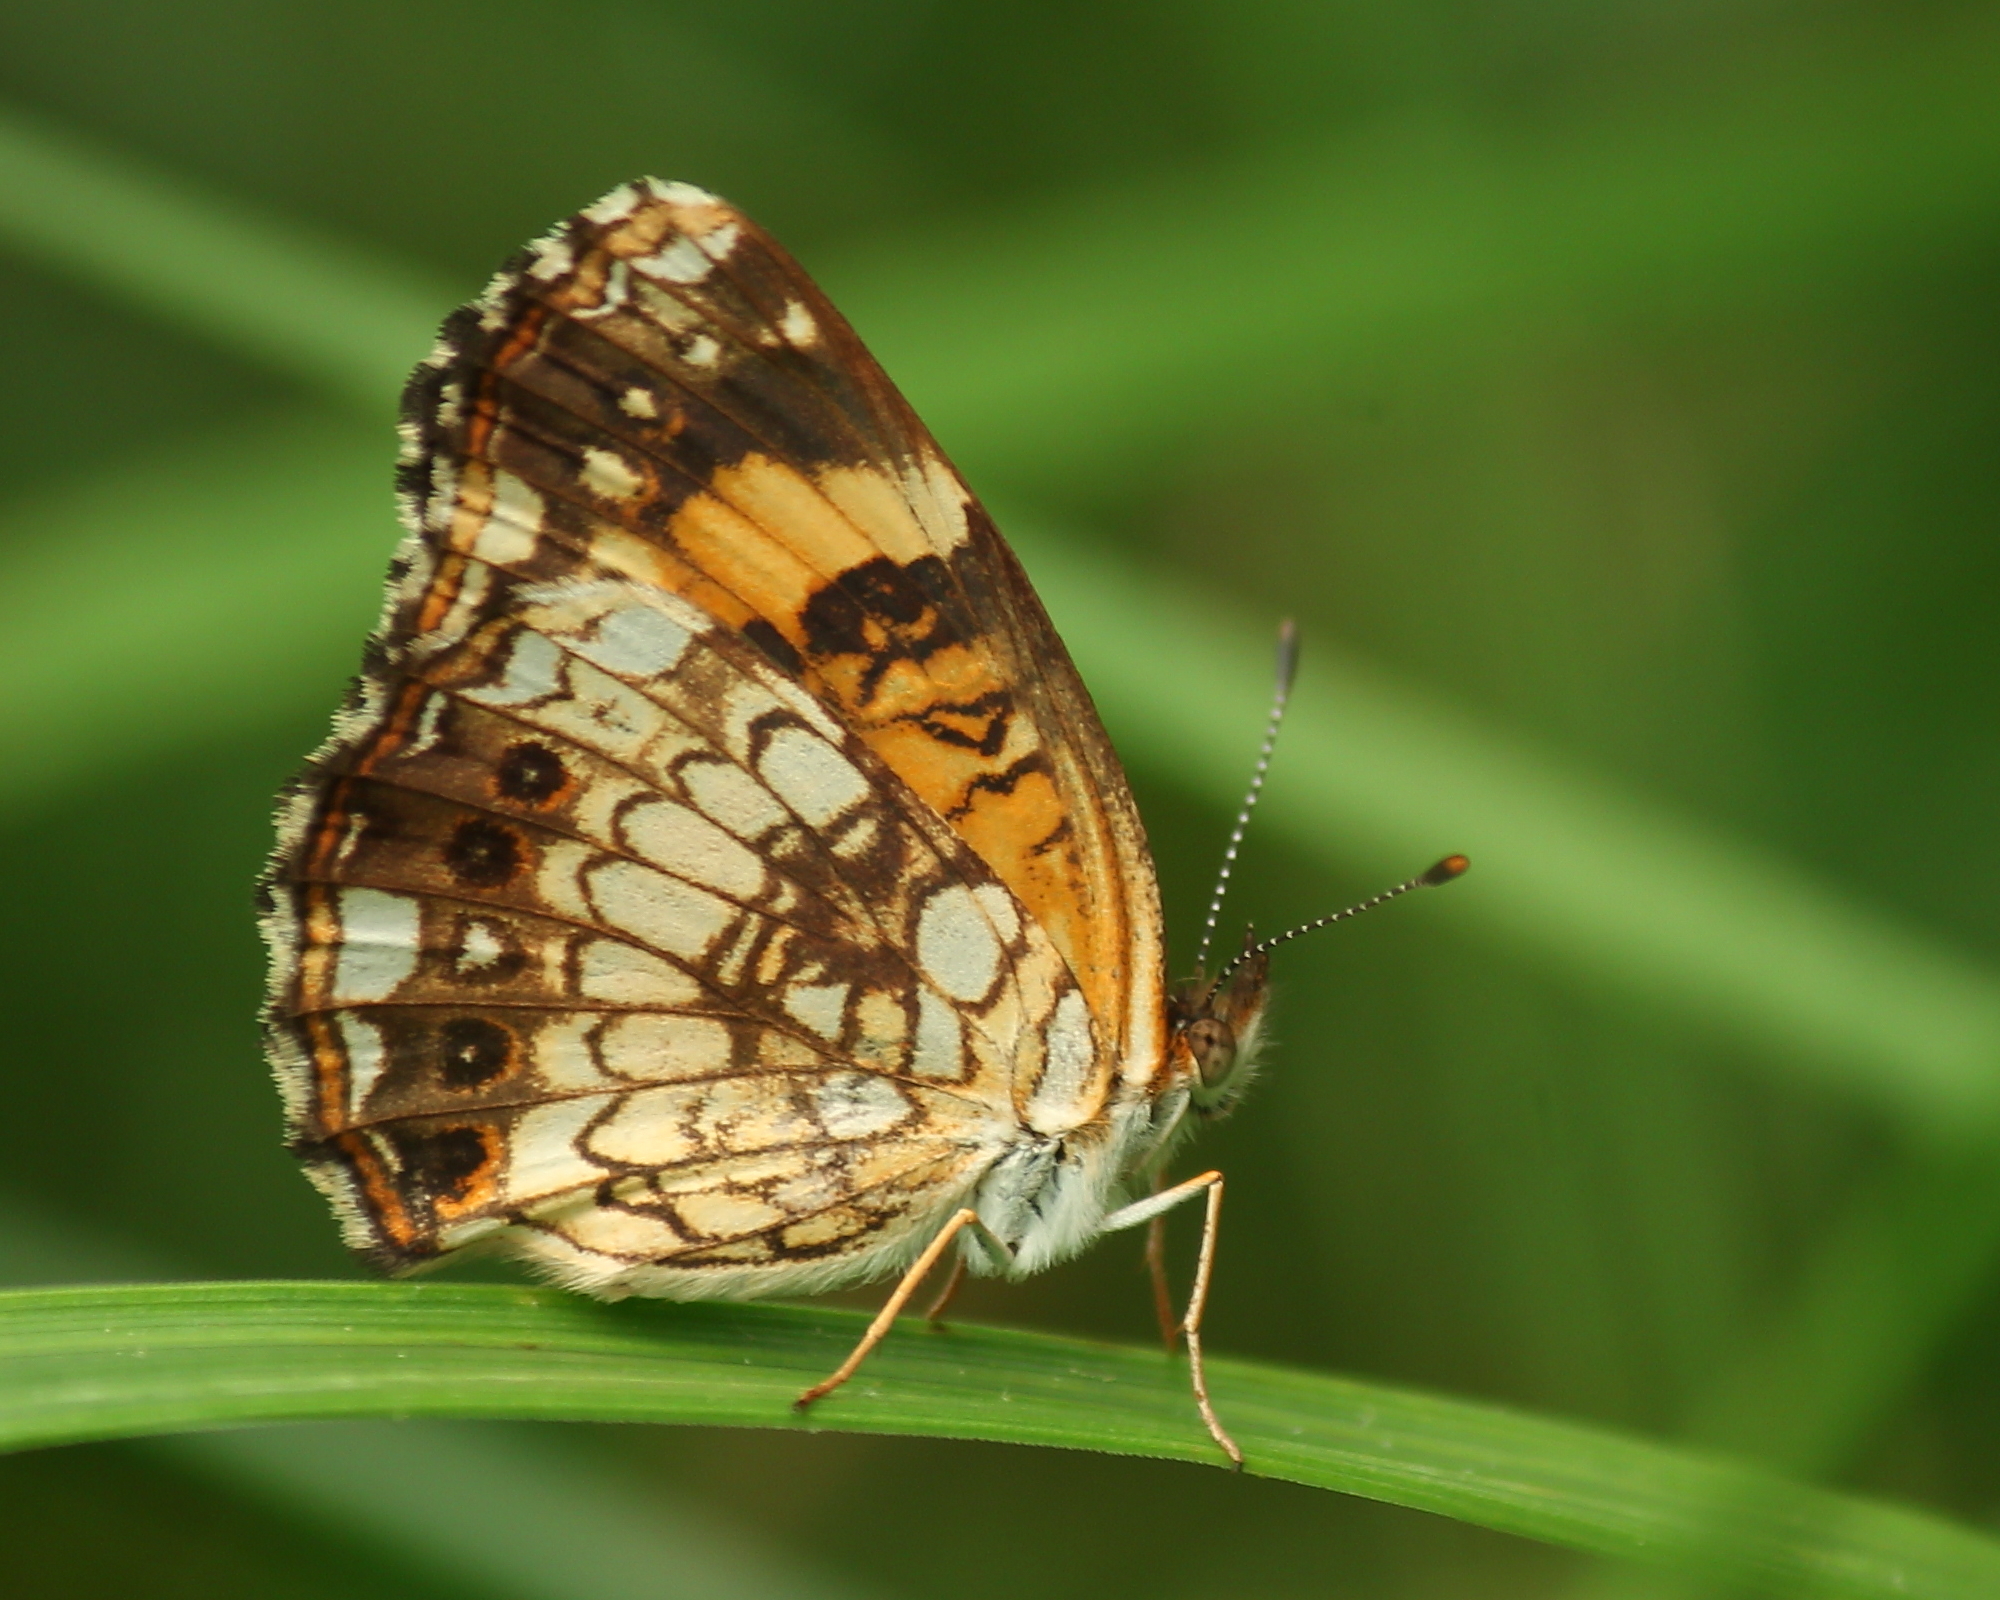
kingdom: Animalia
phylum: Arthropoda
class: Insecta
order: Lepidoptera
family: Nymphalidae
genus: Chlosyne
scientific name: Chlosyne nycteis
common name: Silvery checkerspot
